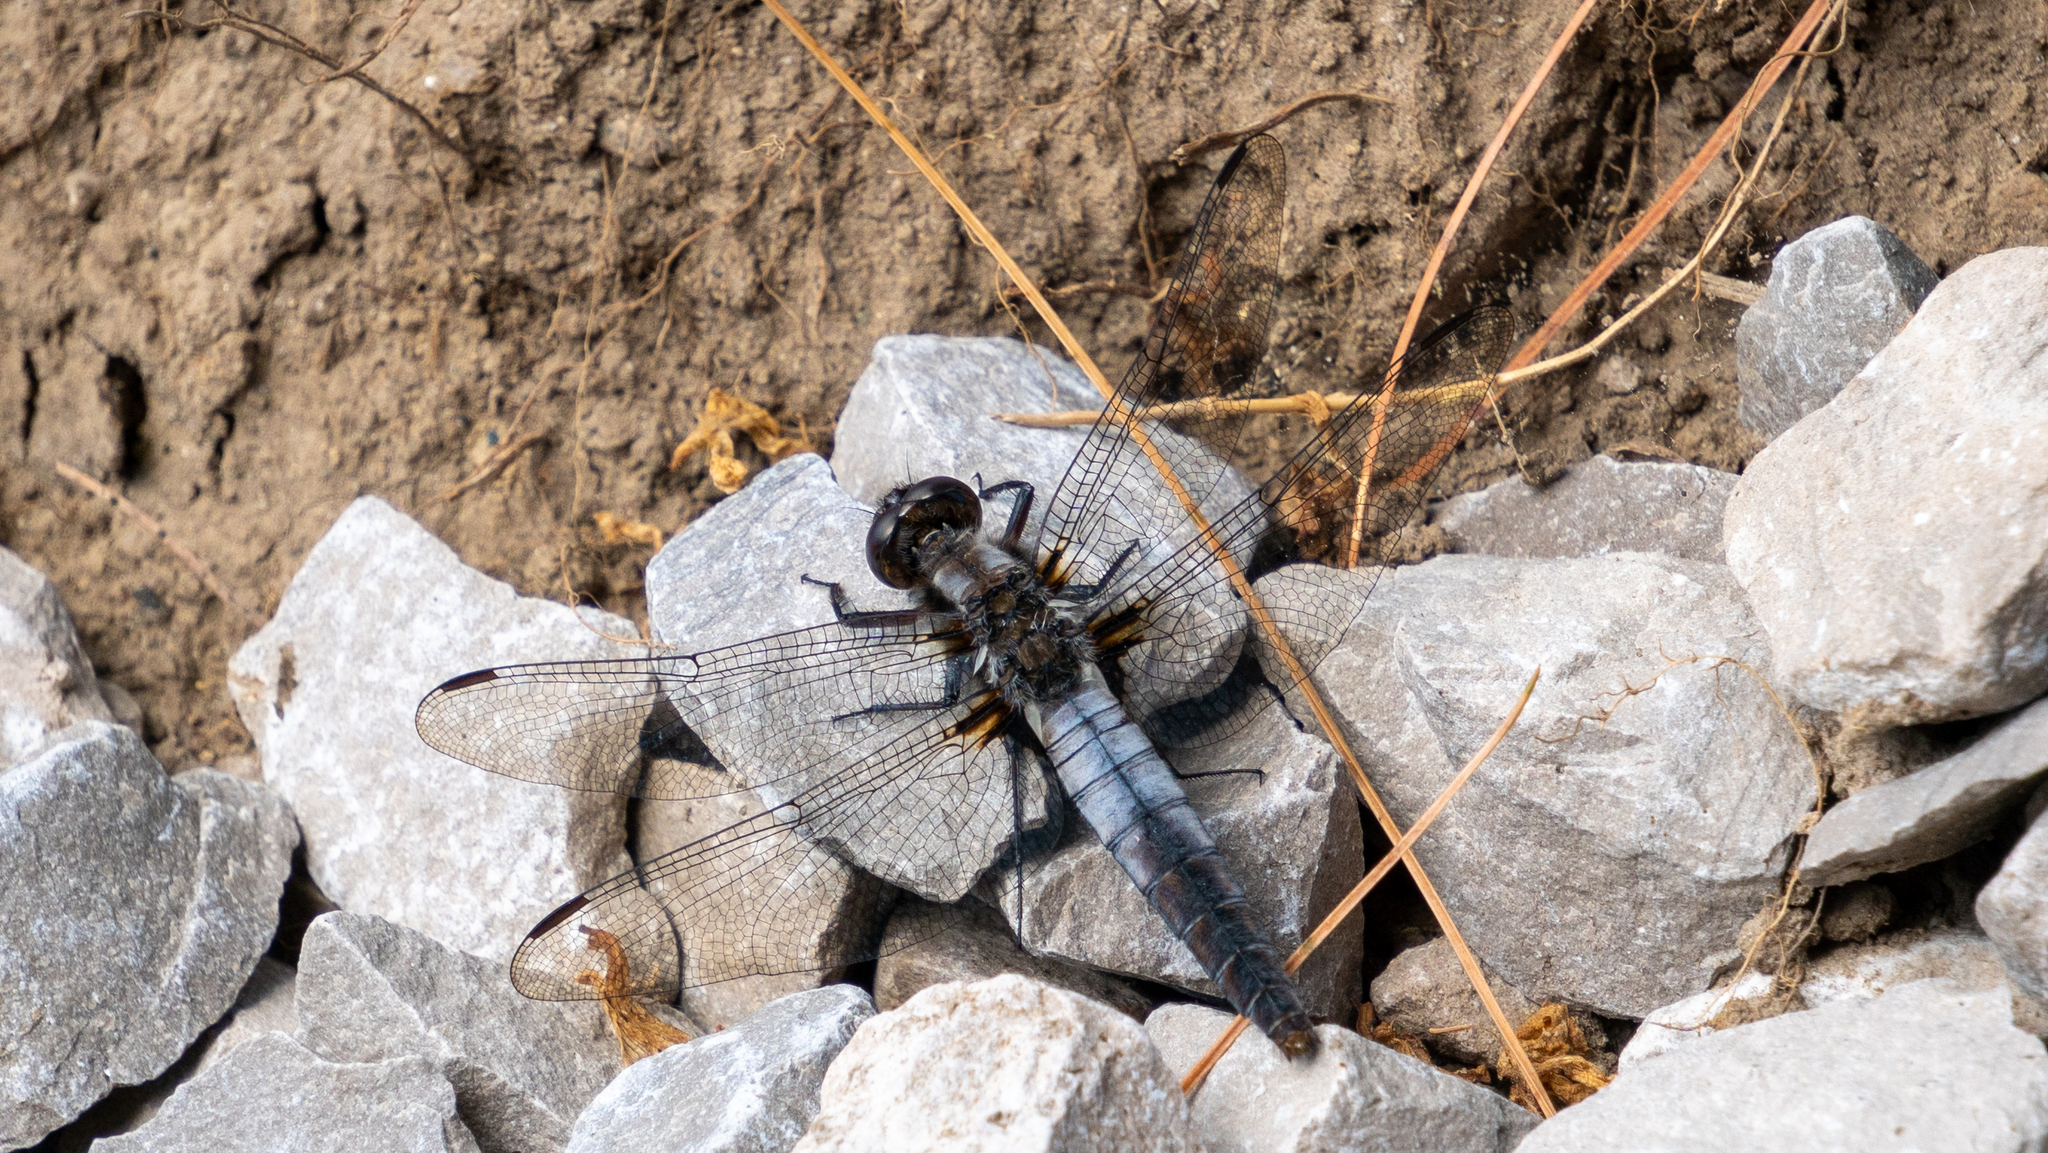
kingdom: Animalia
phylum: Arthropoda
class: Insecta
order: Odonata
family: Libellulidae
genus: Ladona
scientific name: Ladona julia
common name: Chalk-fronted corporal
